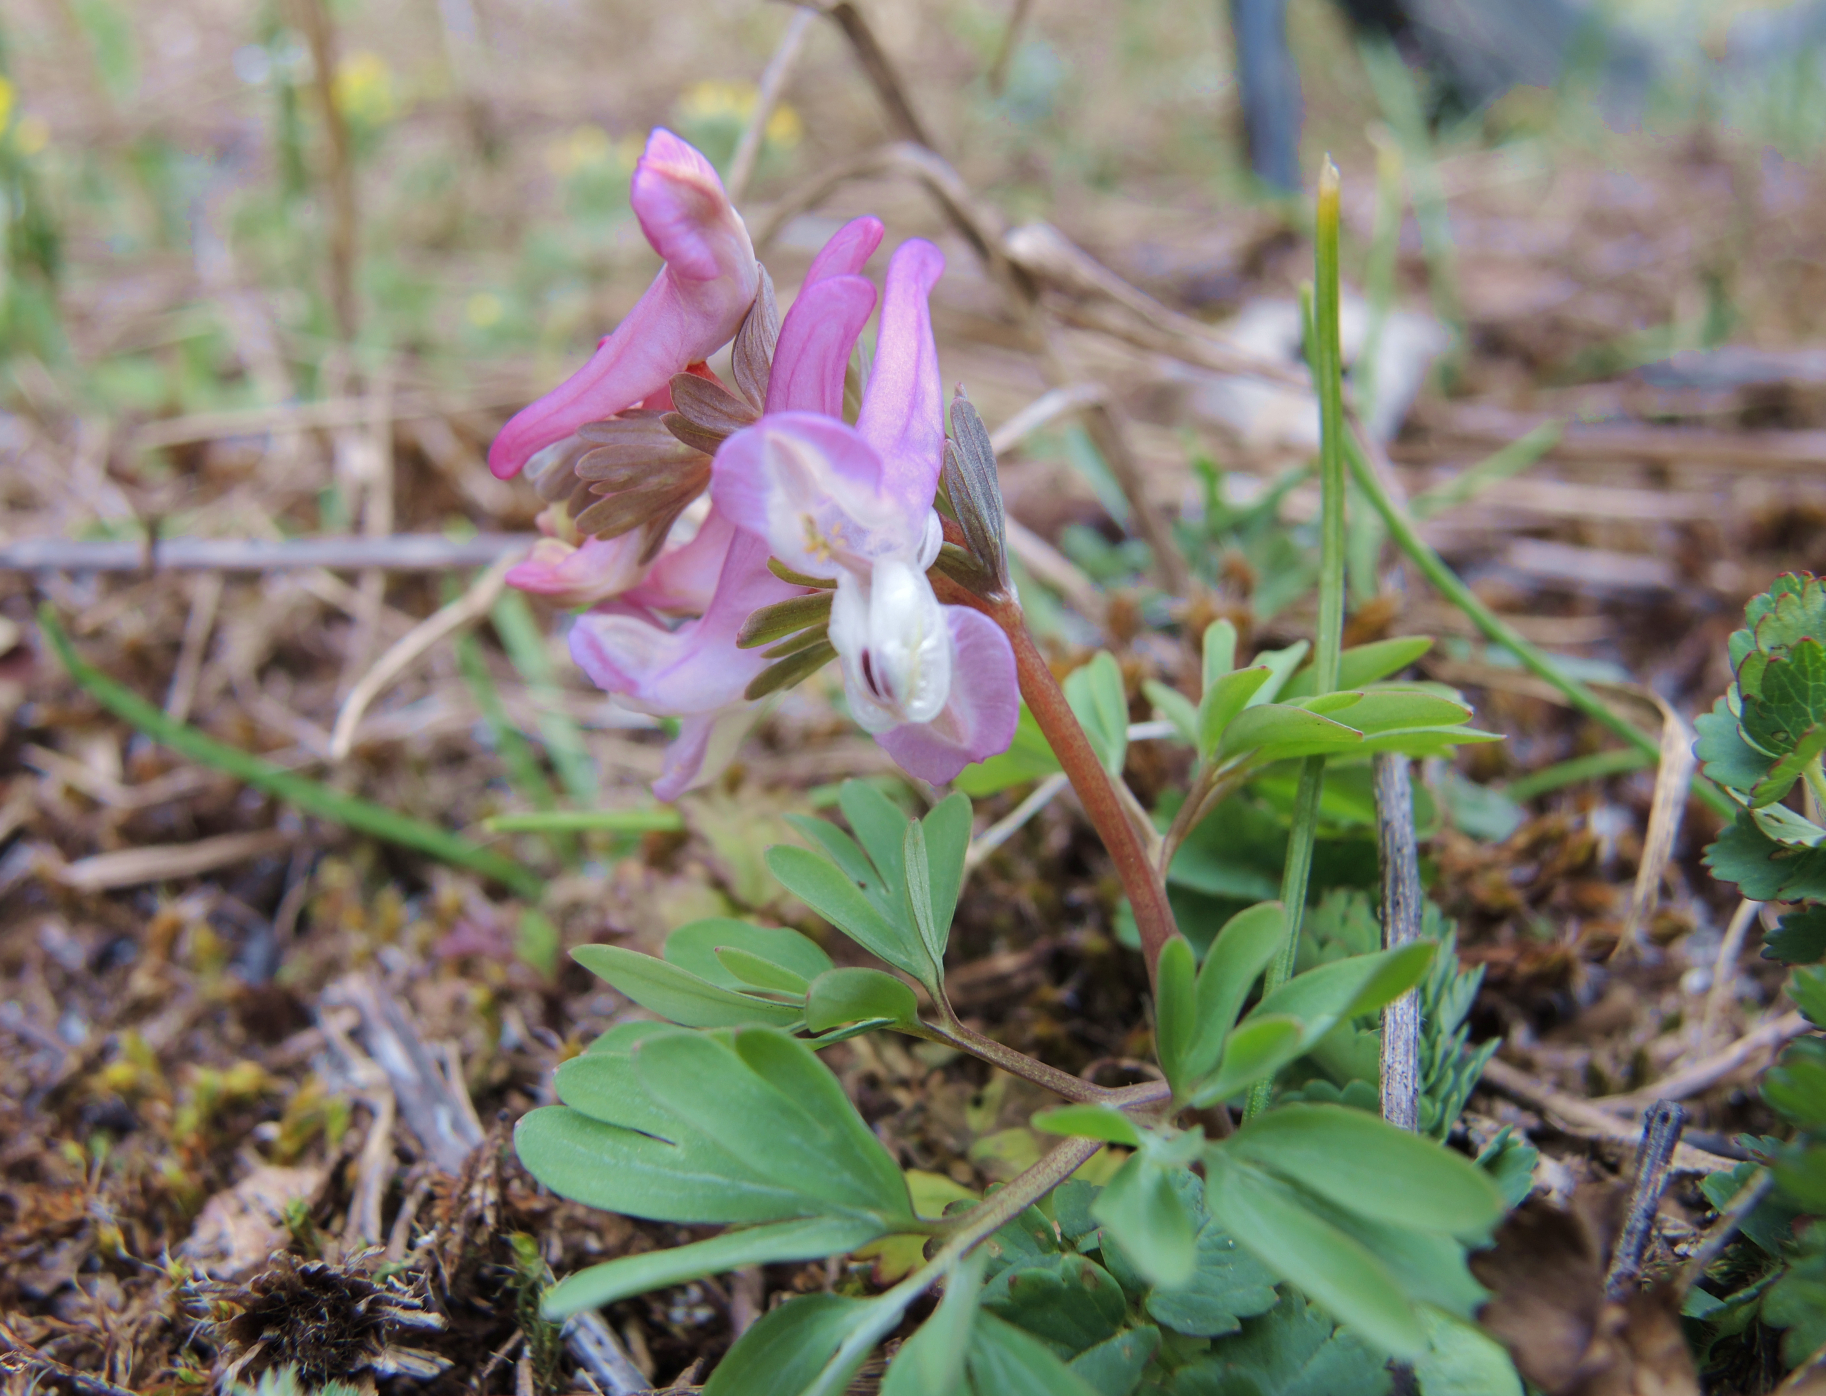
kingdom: Plantae
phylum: Tracheophyta
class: Magnoliopsida
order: Ranunculales
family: Papaveraceae
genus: Corydalis
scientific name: Corydalis solida
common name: Bird-in-a-bush
